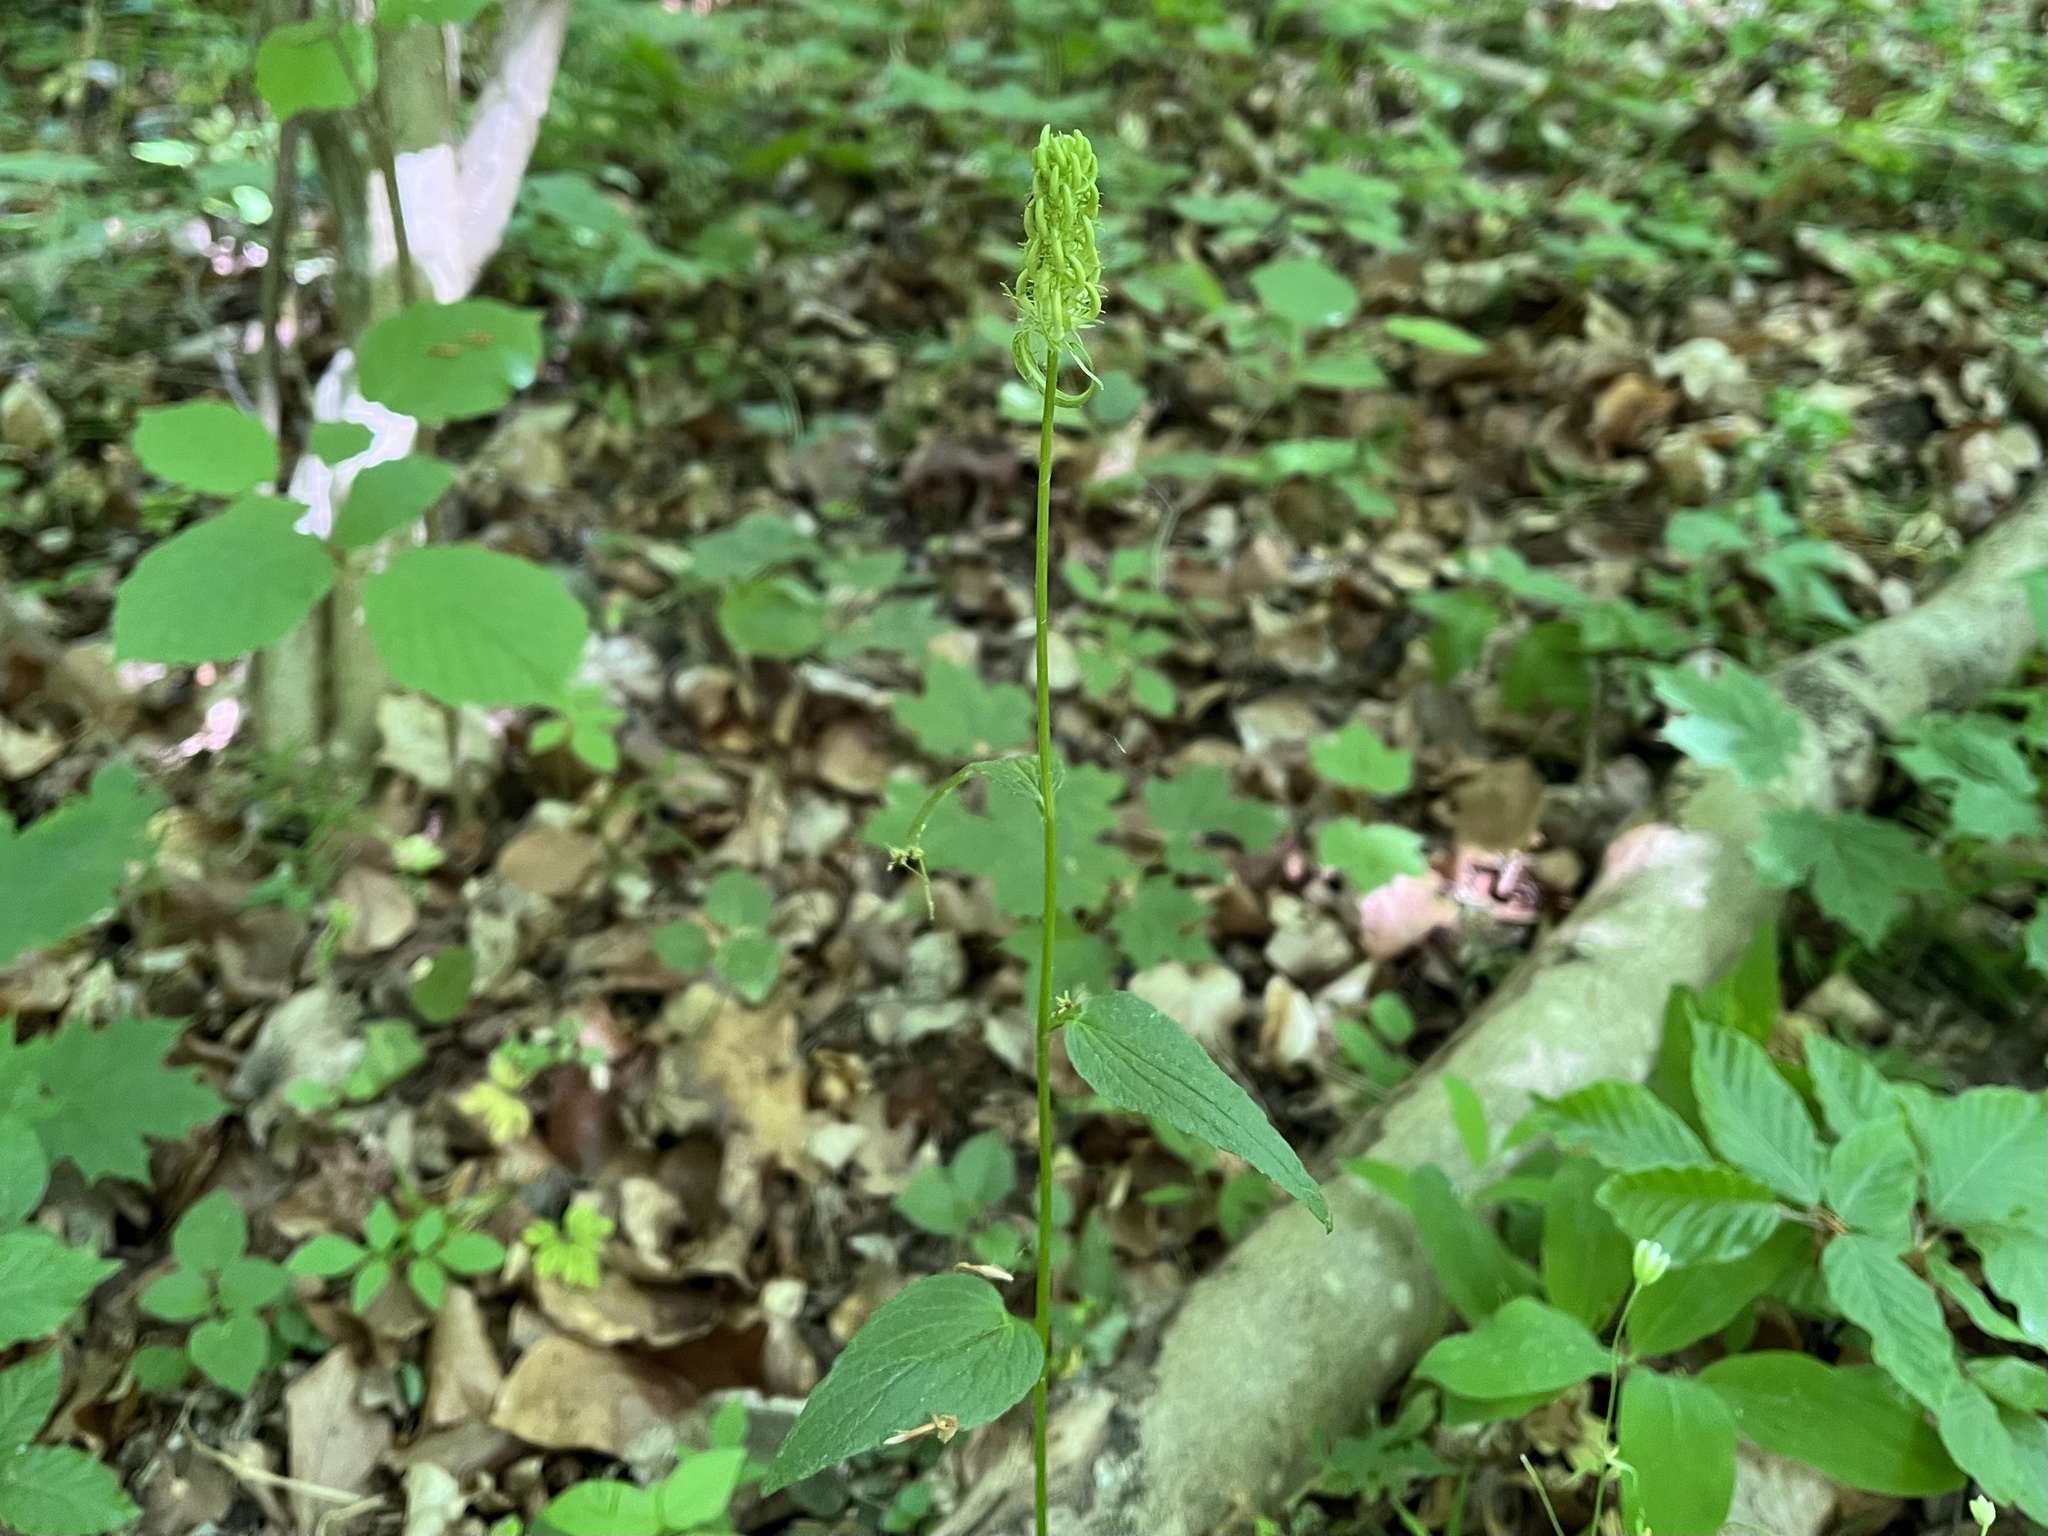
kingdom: Plantae
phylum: Tracheophyta
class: Magnoliopsida
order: Asterales
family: Campanulaceae
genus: Phyteuma
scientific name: Phyteuma spicatum
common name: Spiked rampion
